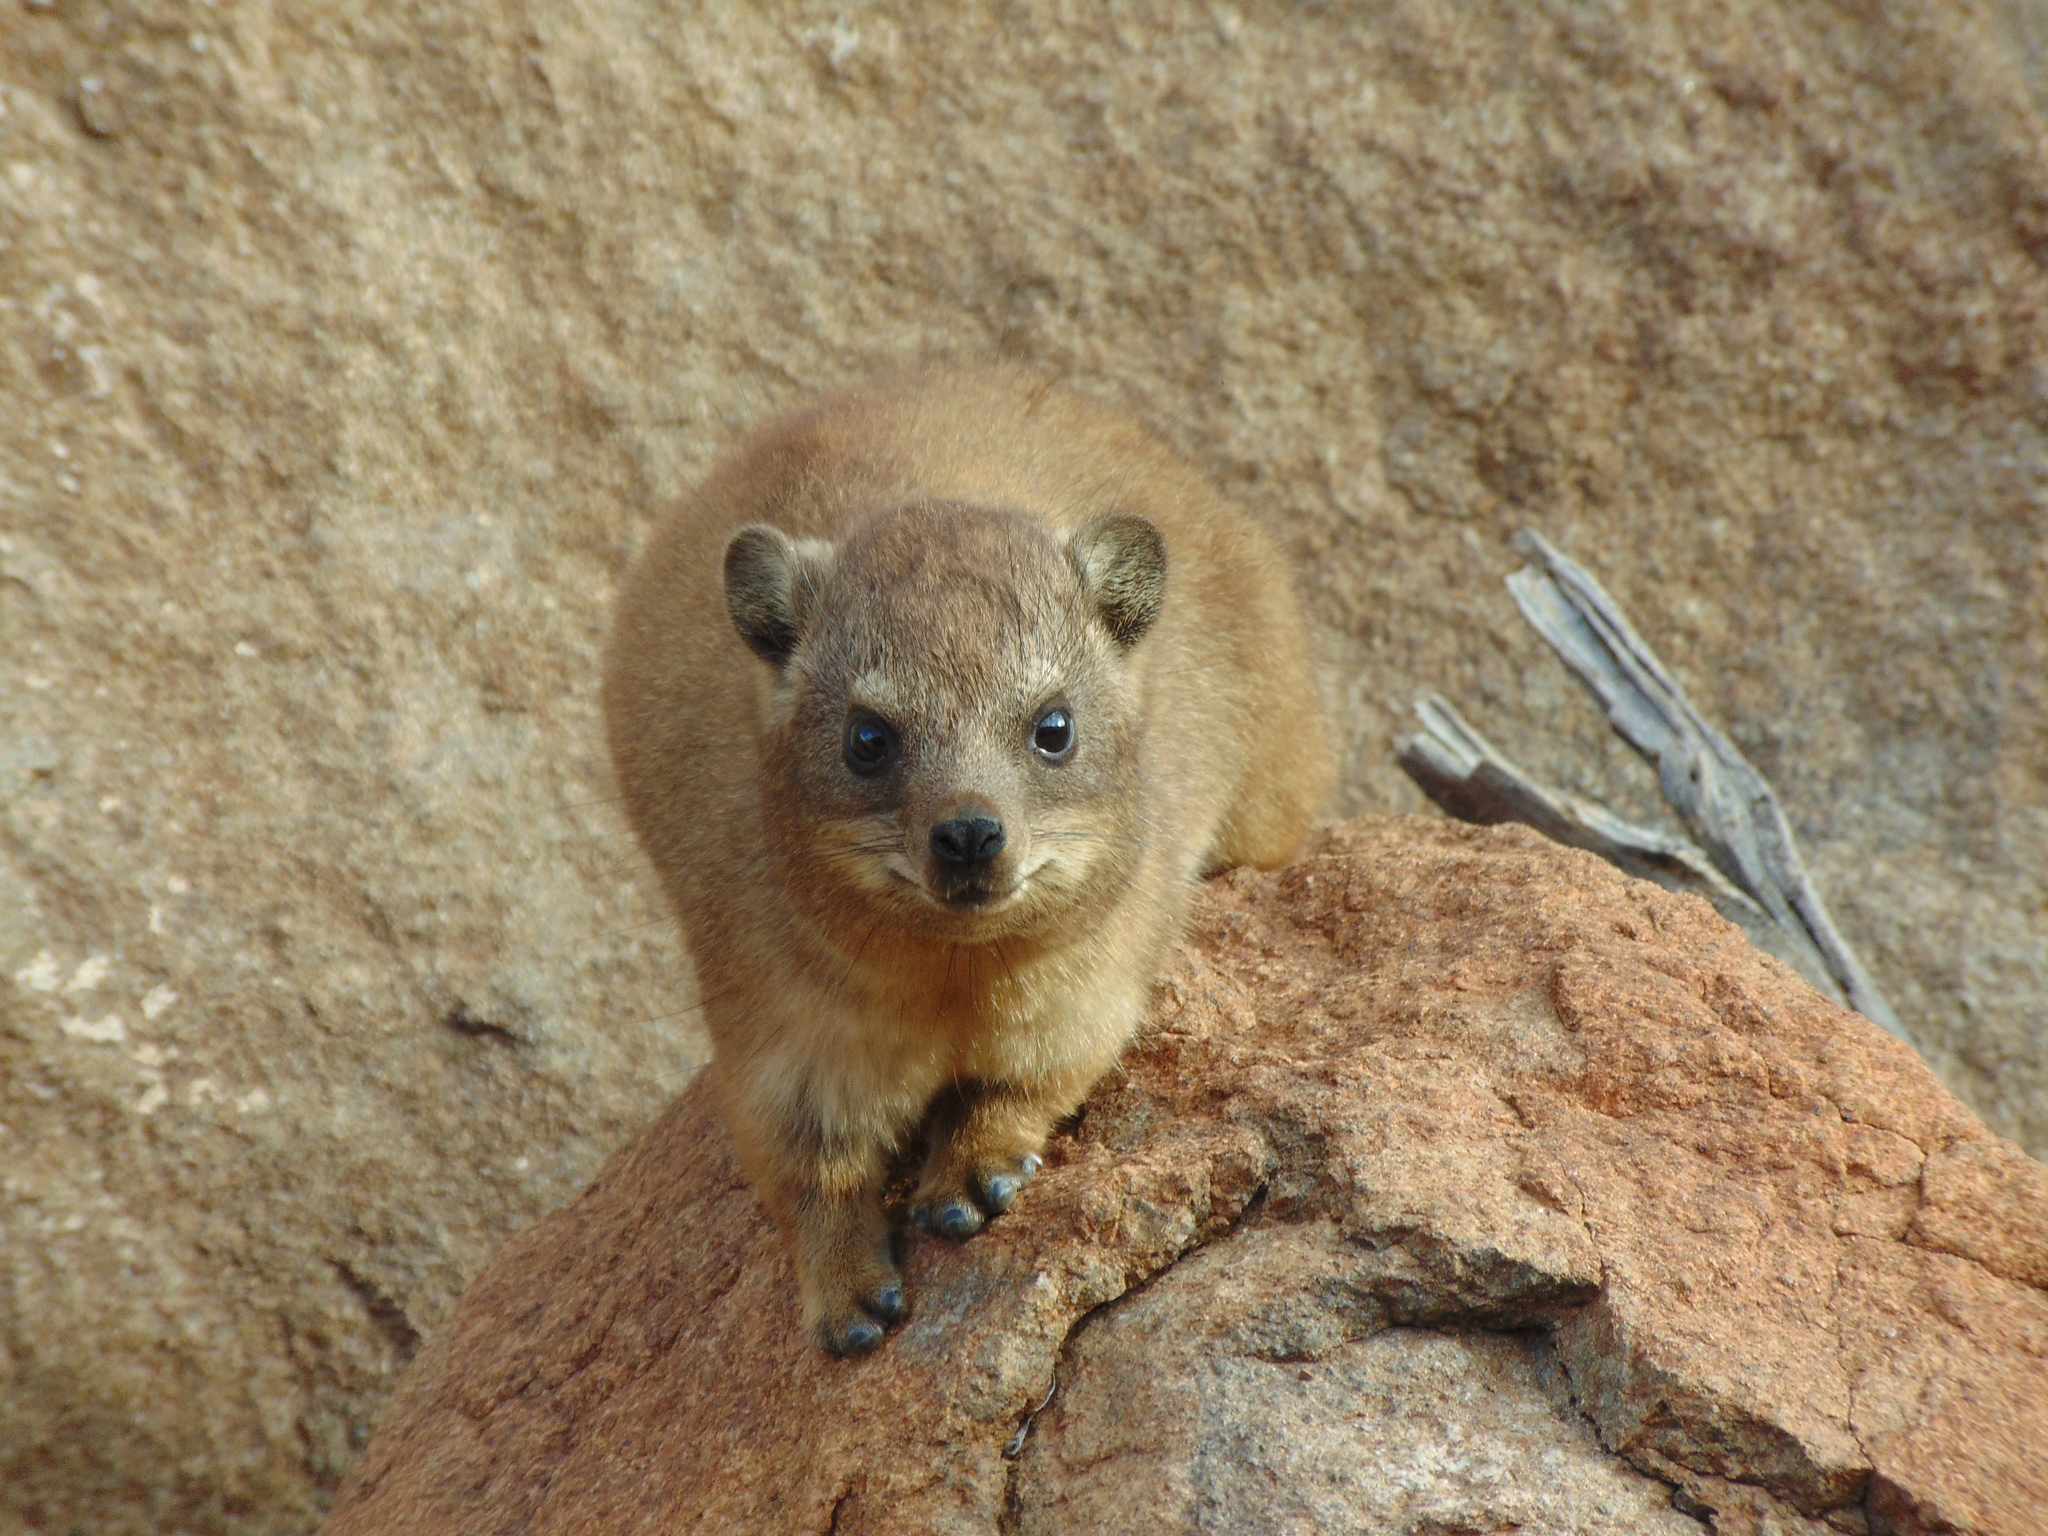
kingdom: Animalia
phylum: Chordata
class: Mammalia
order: Hyracoidea
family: Procaviidae
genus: Procavia
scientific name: Procavia capensis
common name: Rock hyrax
